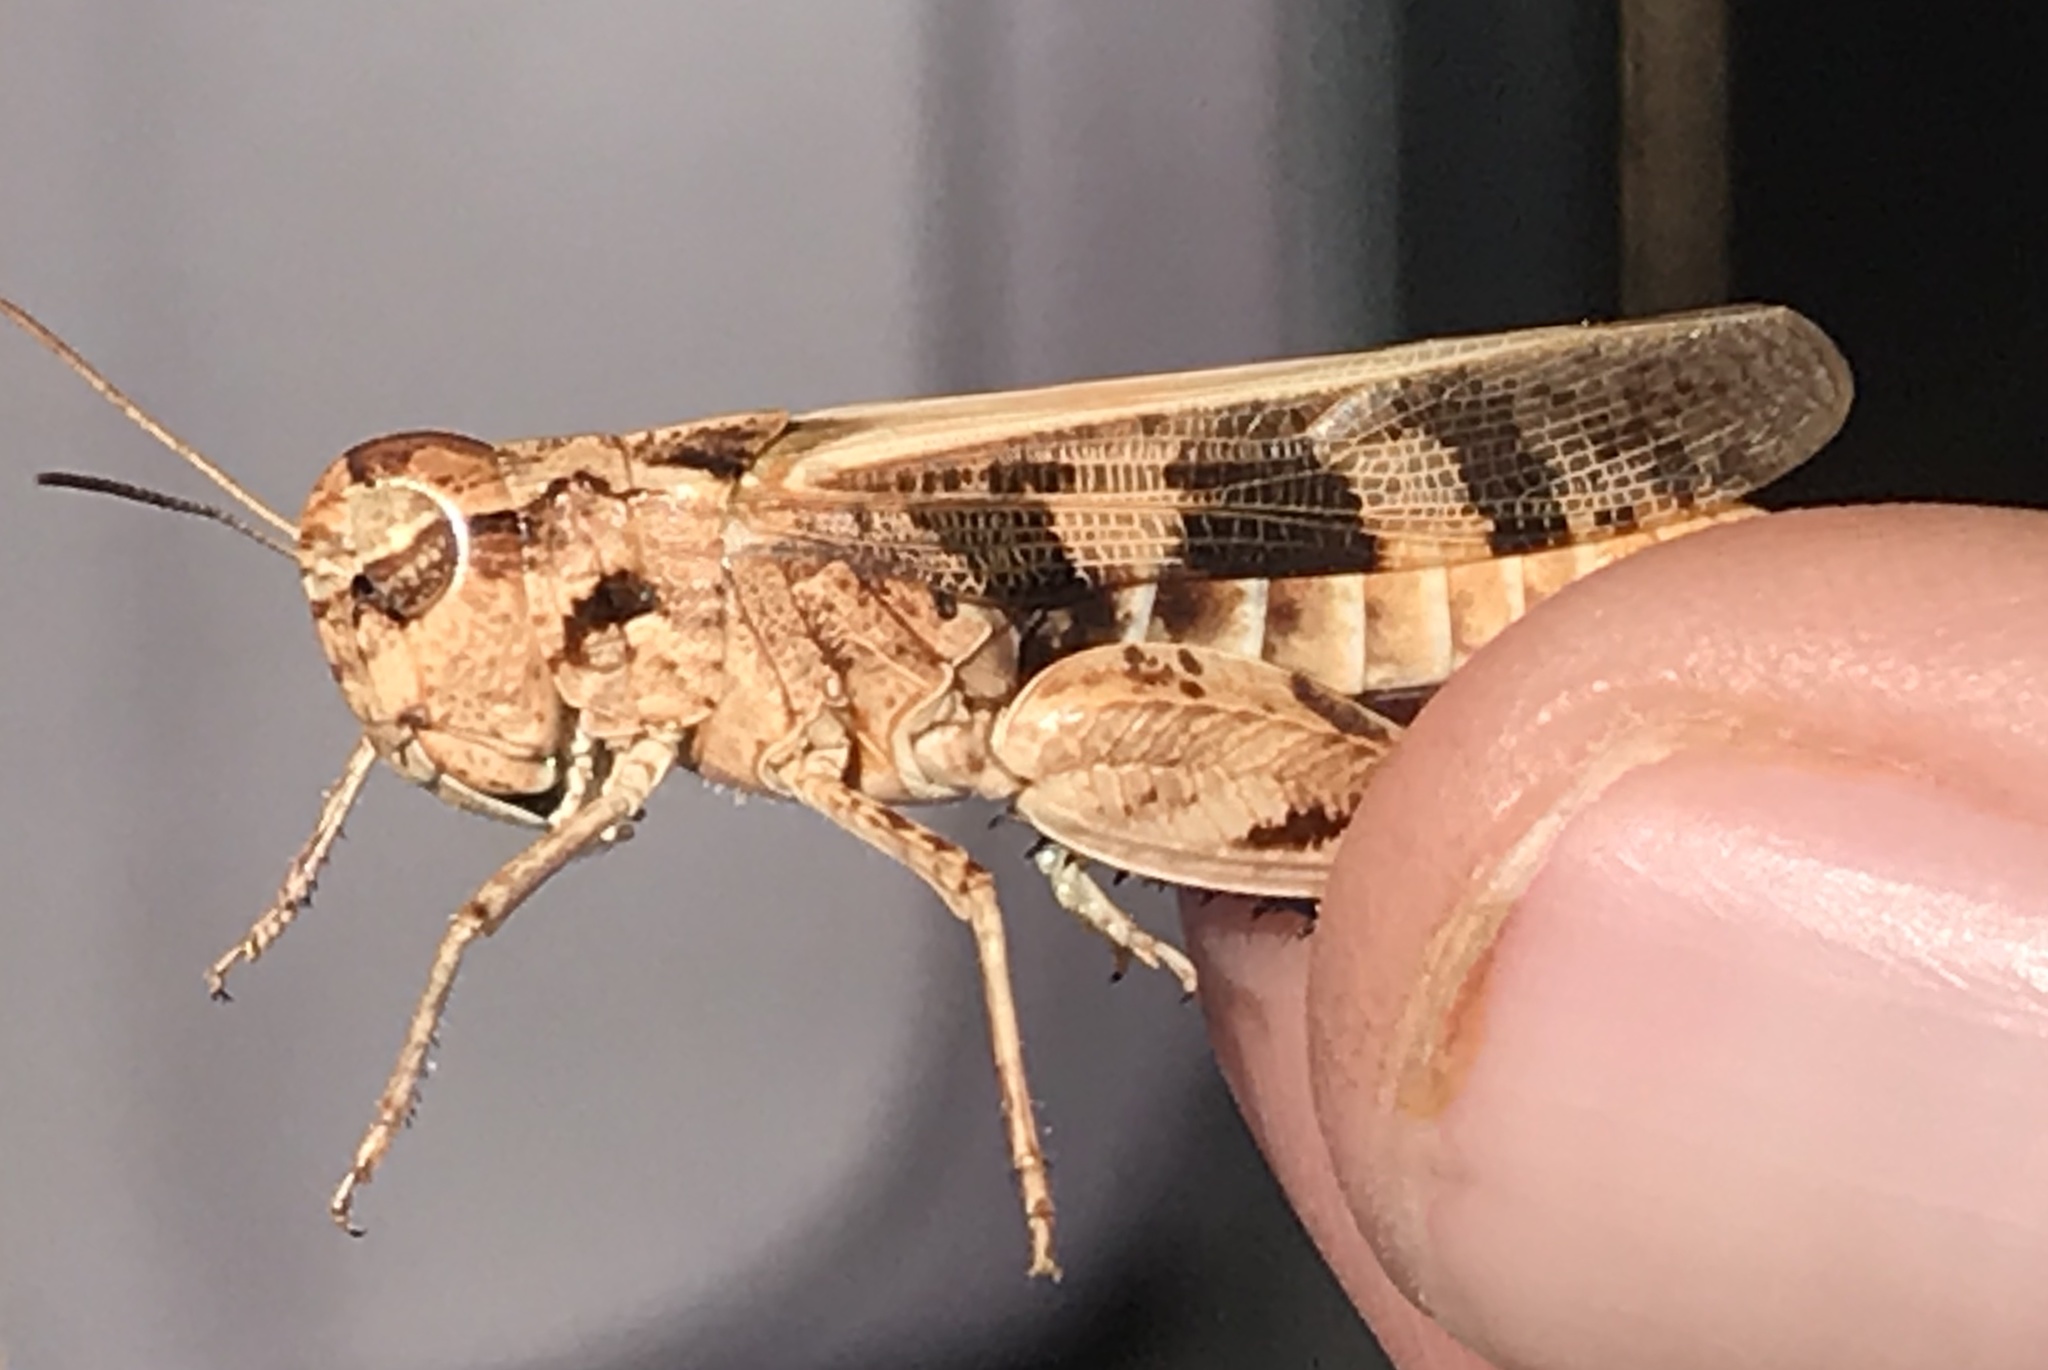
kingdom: Animalia
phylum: Arthropoda
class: Insecta
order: Orthoptera
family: Acrididae
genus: Encoptolophus
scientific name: Encoptolophus costalis
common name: Dusky grasshopper
